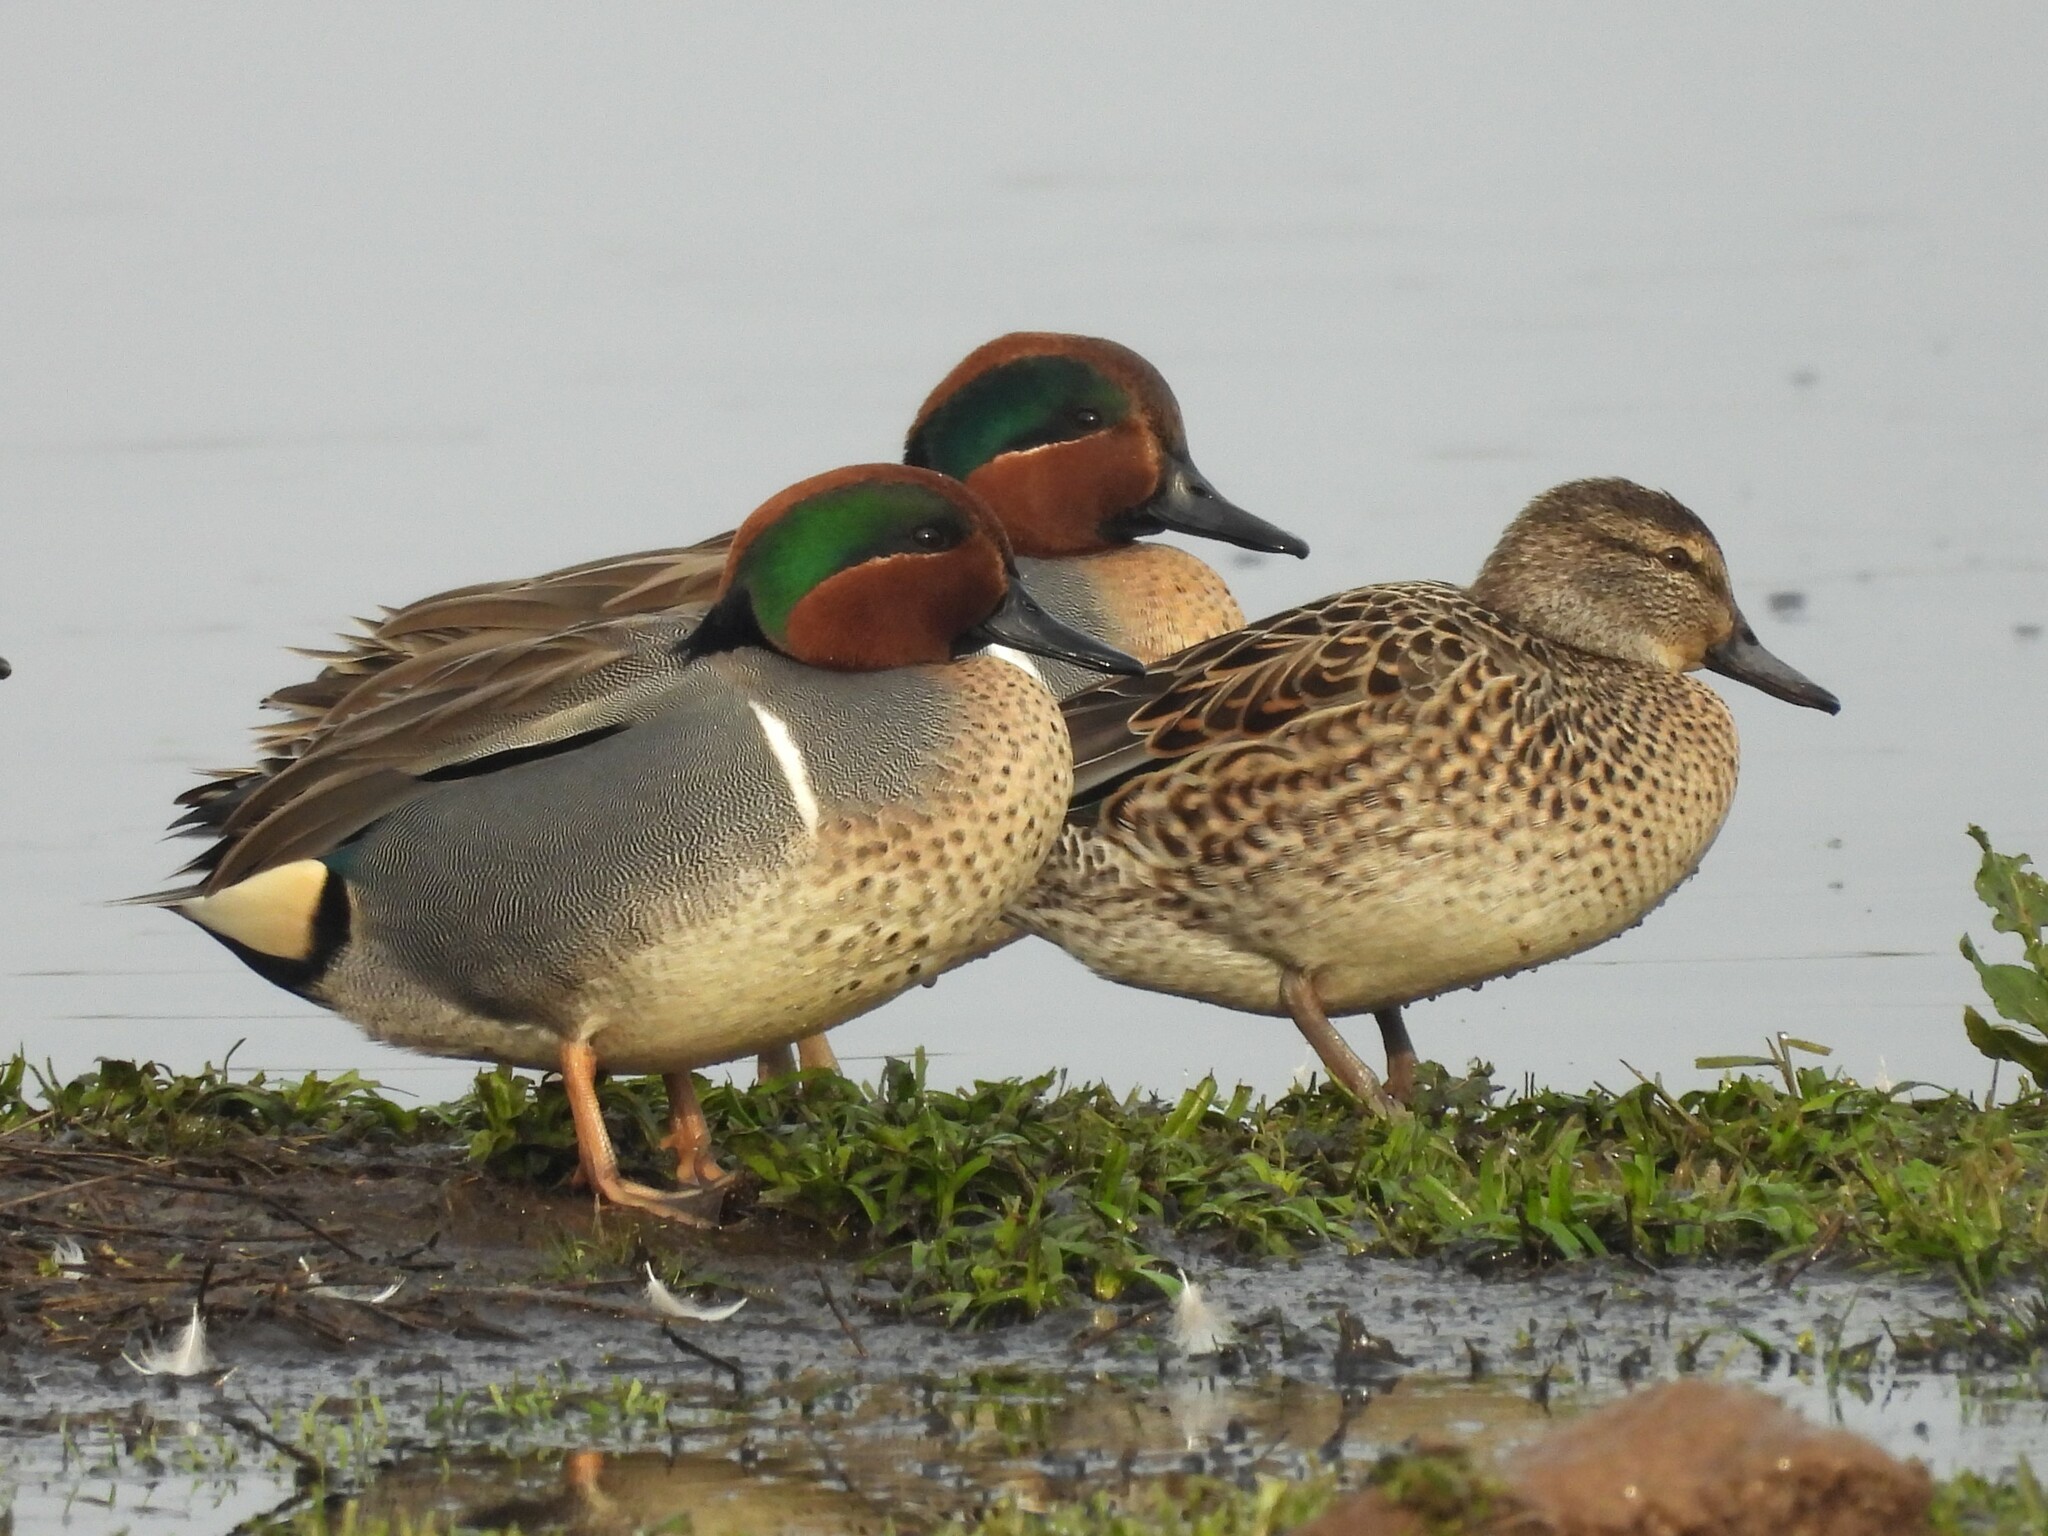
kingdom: Animalia
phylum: Chordata
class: Aves
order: Anseriformes
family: Anatidae
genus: Anas
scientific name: Anas crecca
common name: Eurasian teal
